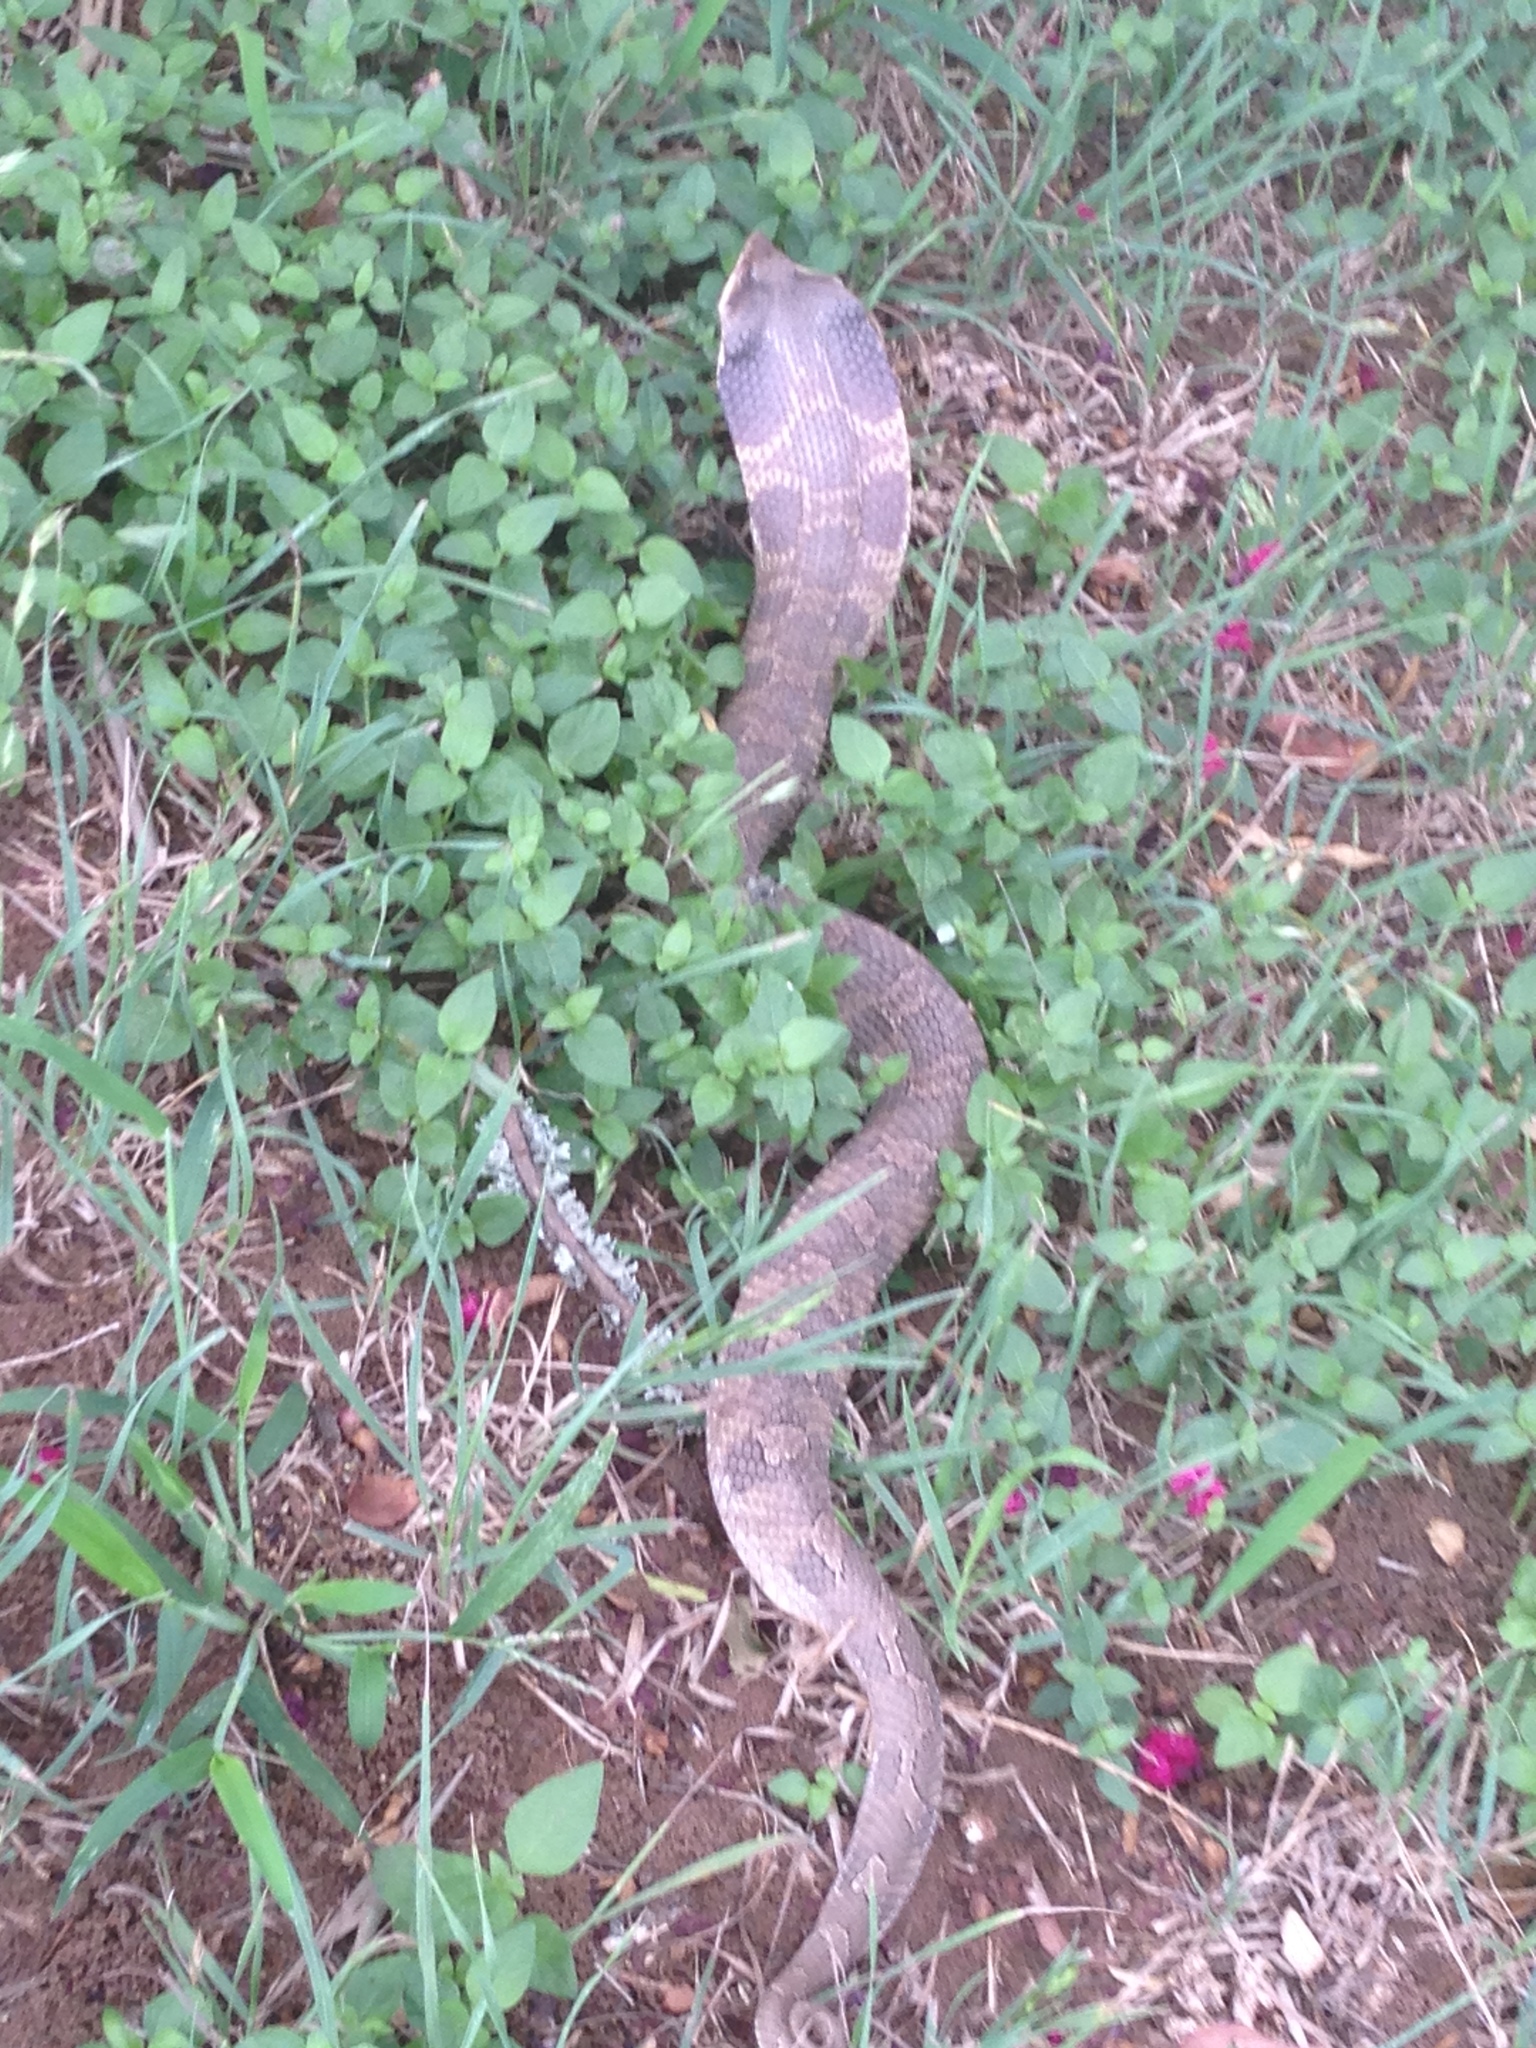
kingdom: Animalia
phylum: Chordata
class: Squamata
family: Colubridae
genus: Heterodon
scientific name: Heterodon platirhinos
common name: Eastern hognose snake
